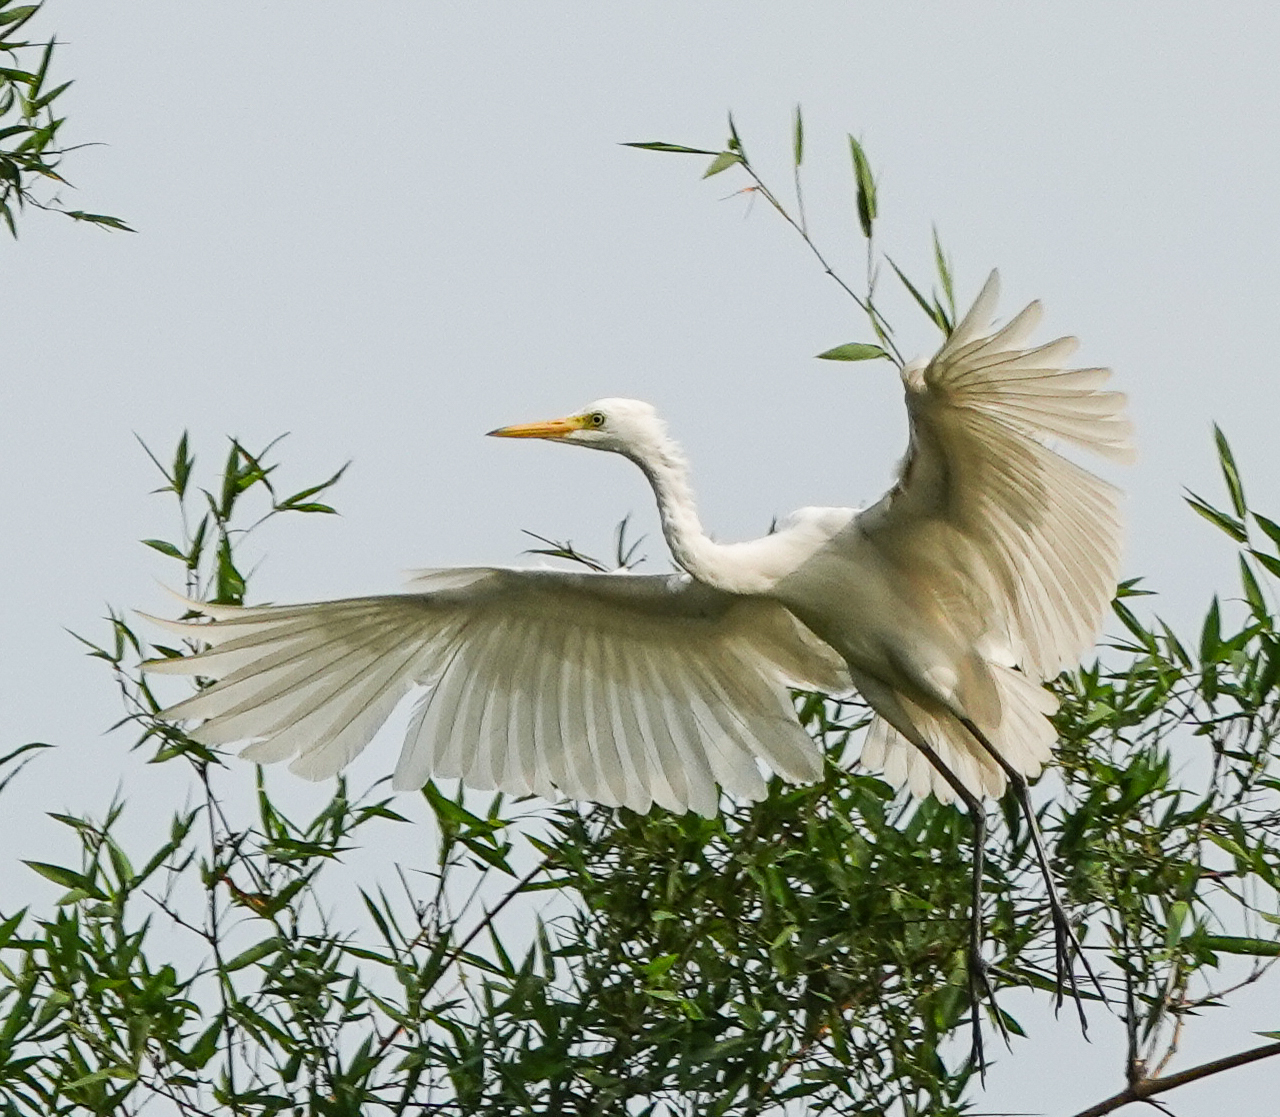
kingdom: Animalia
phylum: Chordata
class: Aves
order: Pelecaniformes
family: Ardeidae
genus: Bubulcus
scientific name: Bubulcus coromandus
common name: Eastern cattle egret
